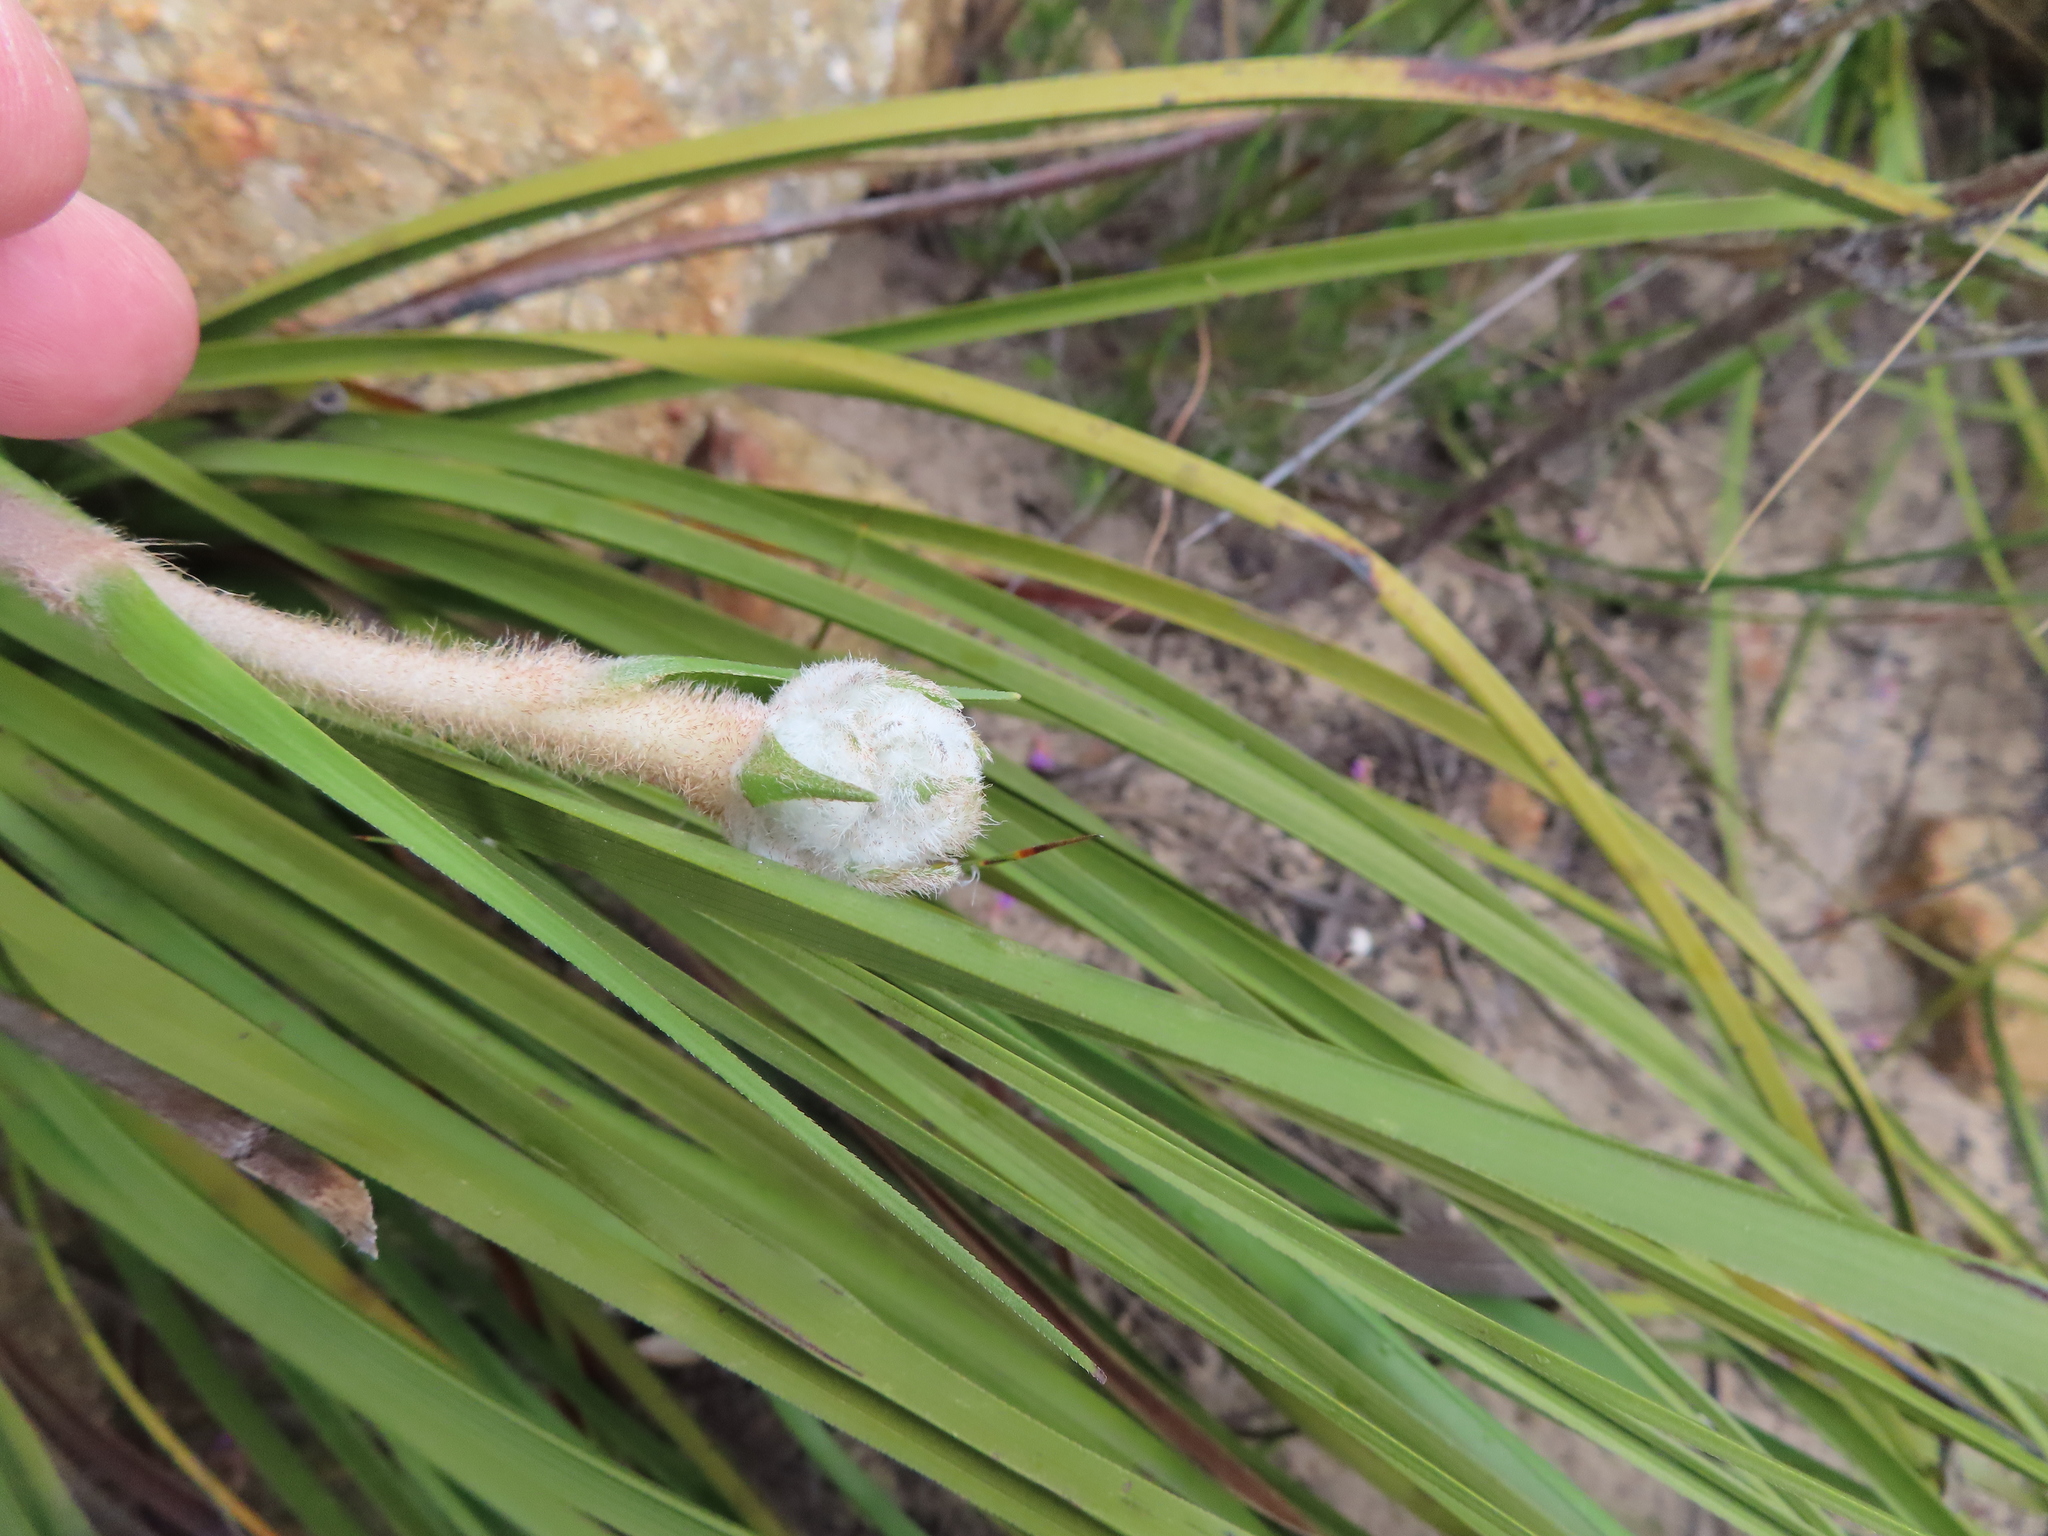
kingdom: Plantae
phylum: Tracheophyta
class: Liliopsida
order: Asparagales
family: Lanariaceae
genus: Lanaria
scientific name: Lanaria lanata
